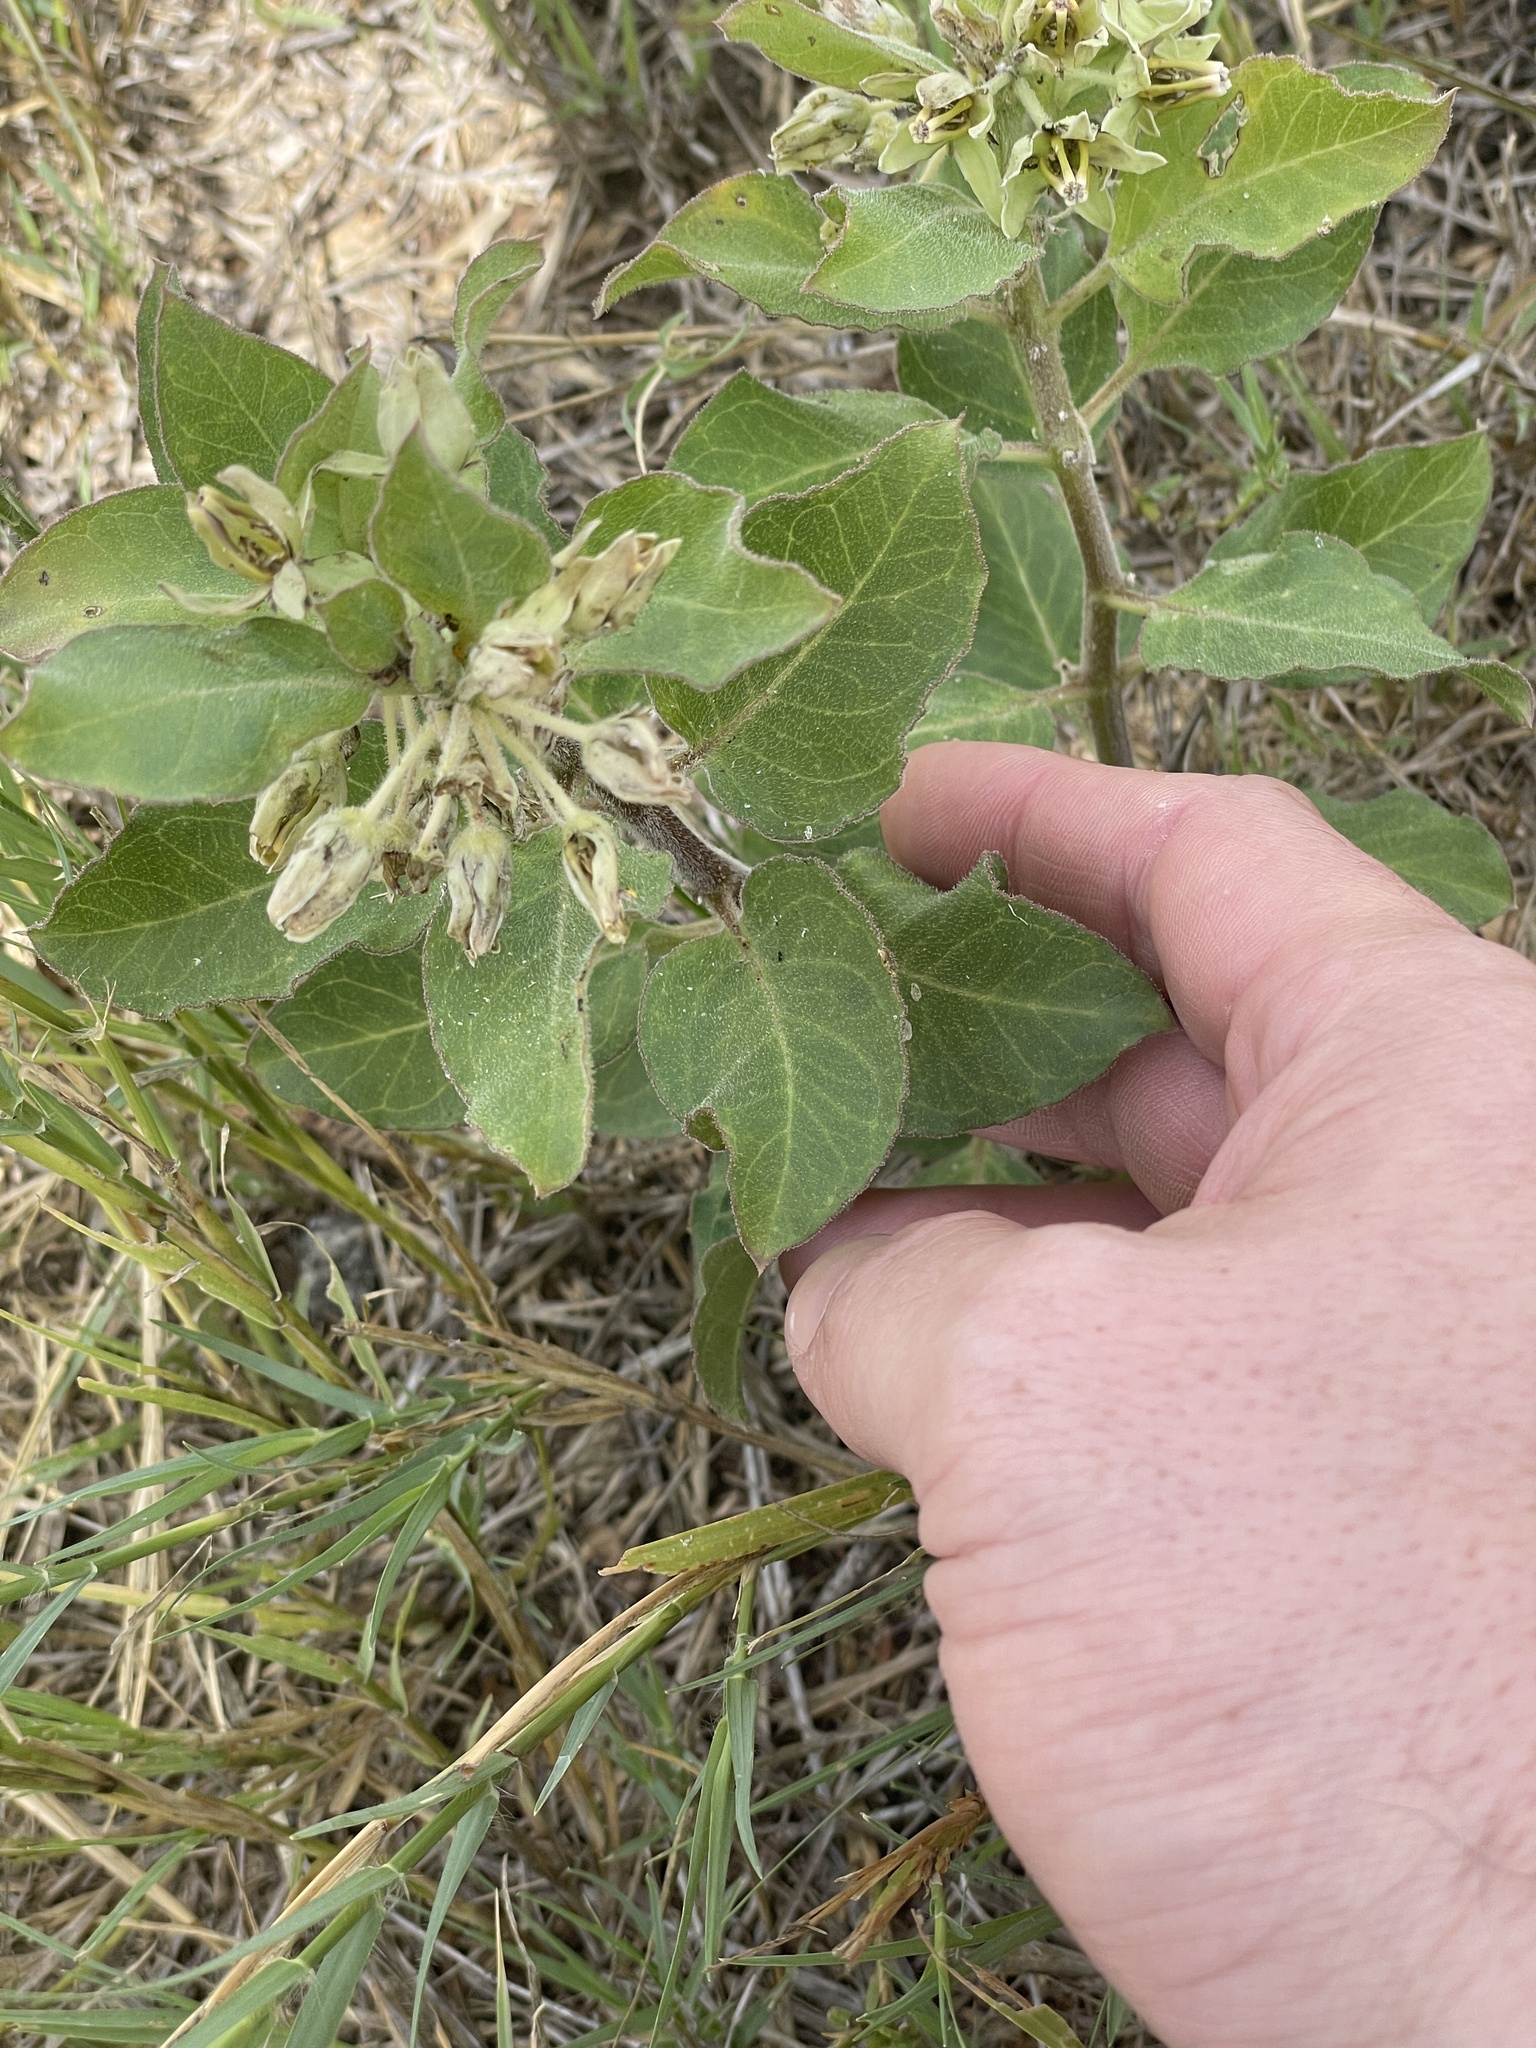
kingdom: Plantae
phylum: Tracheophyta
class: Magnoliopsida
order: Gentianales
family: Apocynaceae
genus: Asclepias
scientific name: Asclepias oenotheroides
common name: Zizotes milkweed
